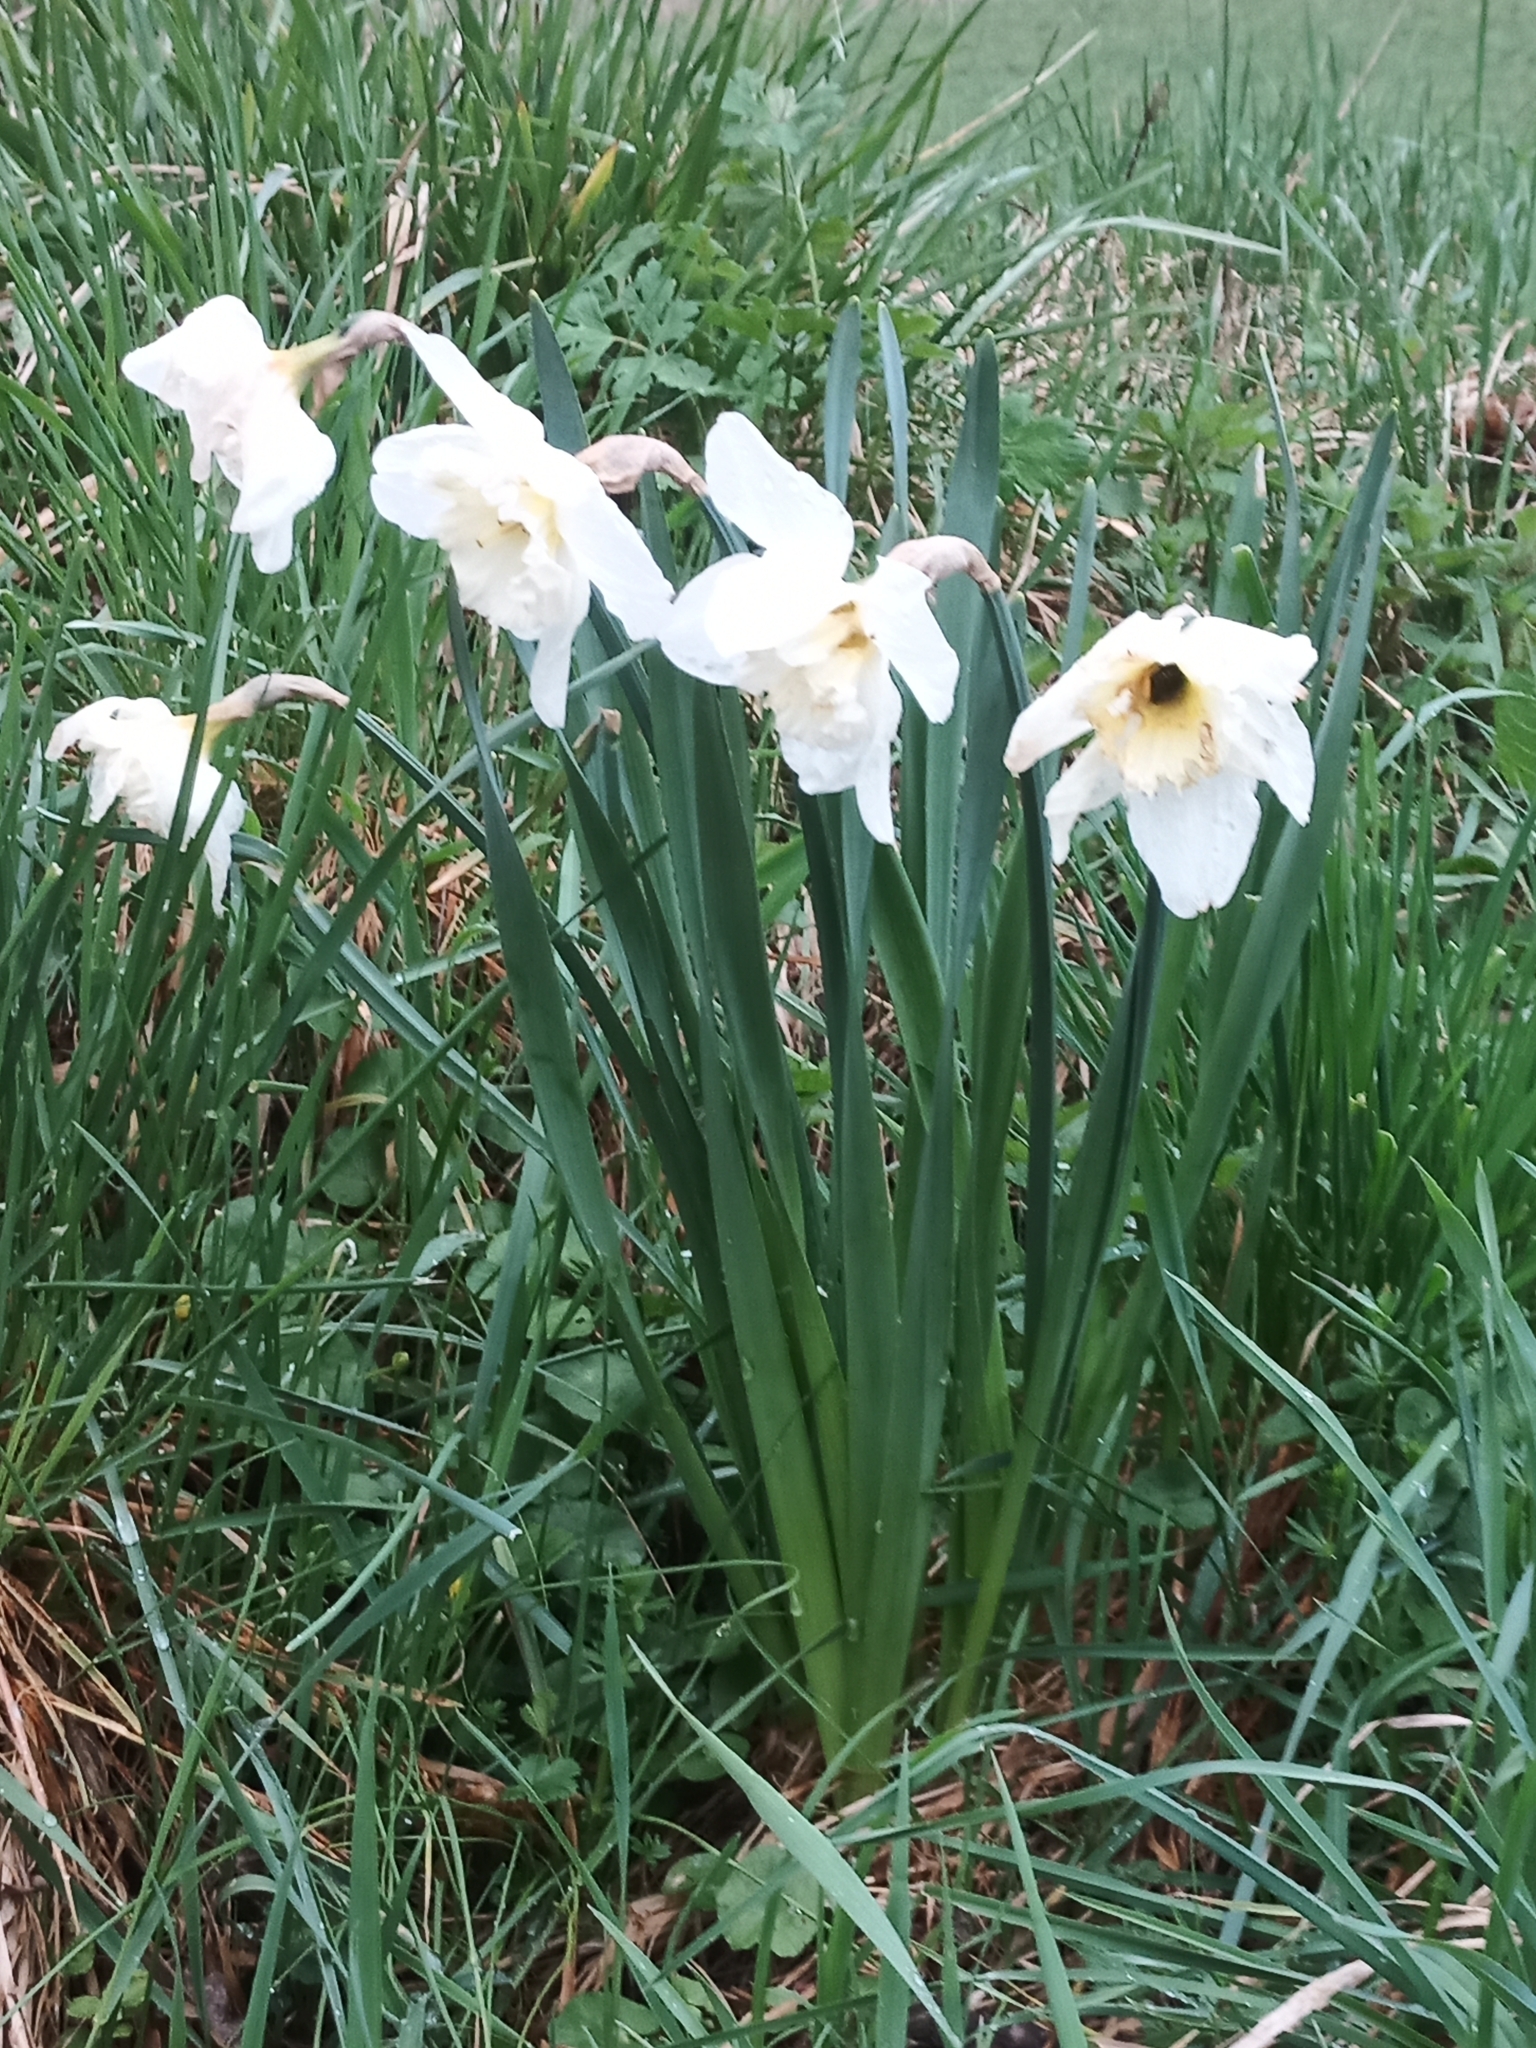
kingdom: Plantae
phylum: Tracheophyta
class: Liliopsida
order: Asparagales
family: Amaryllidaceae
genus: Narcissus
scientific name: Narcissus poeticus
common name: Pheasant's-eye daffodil
